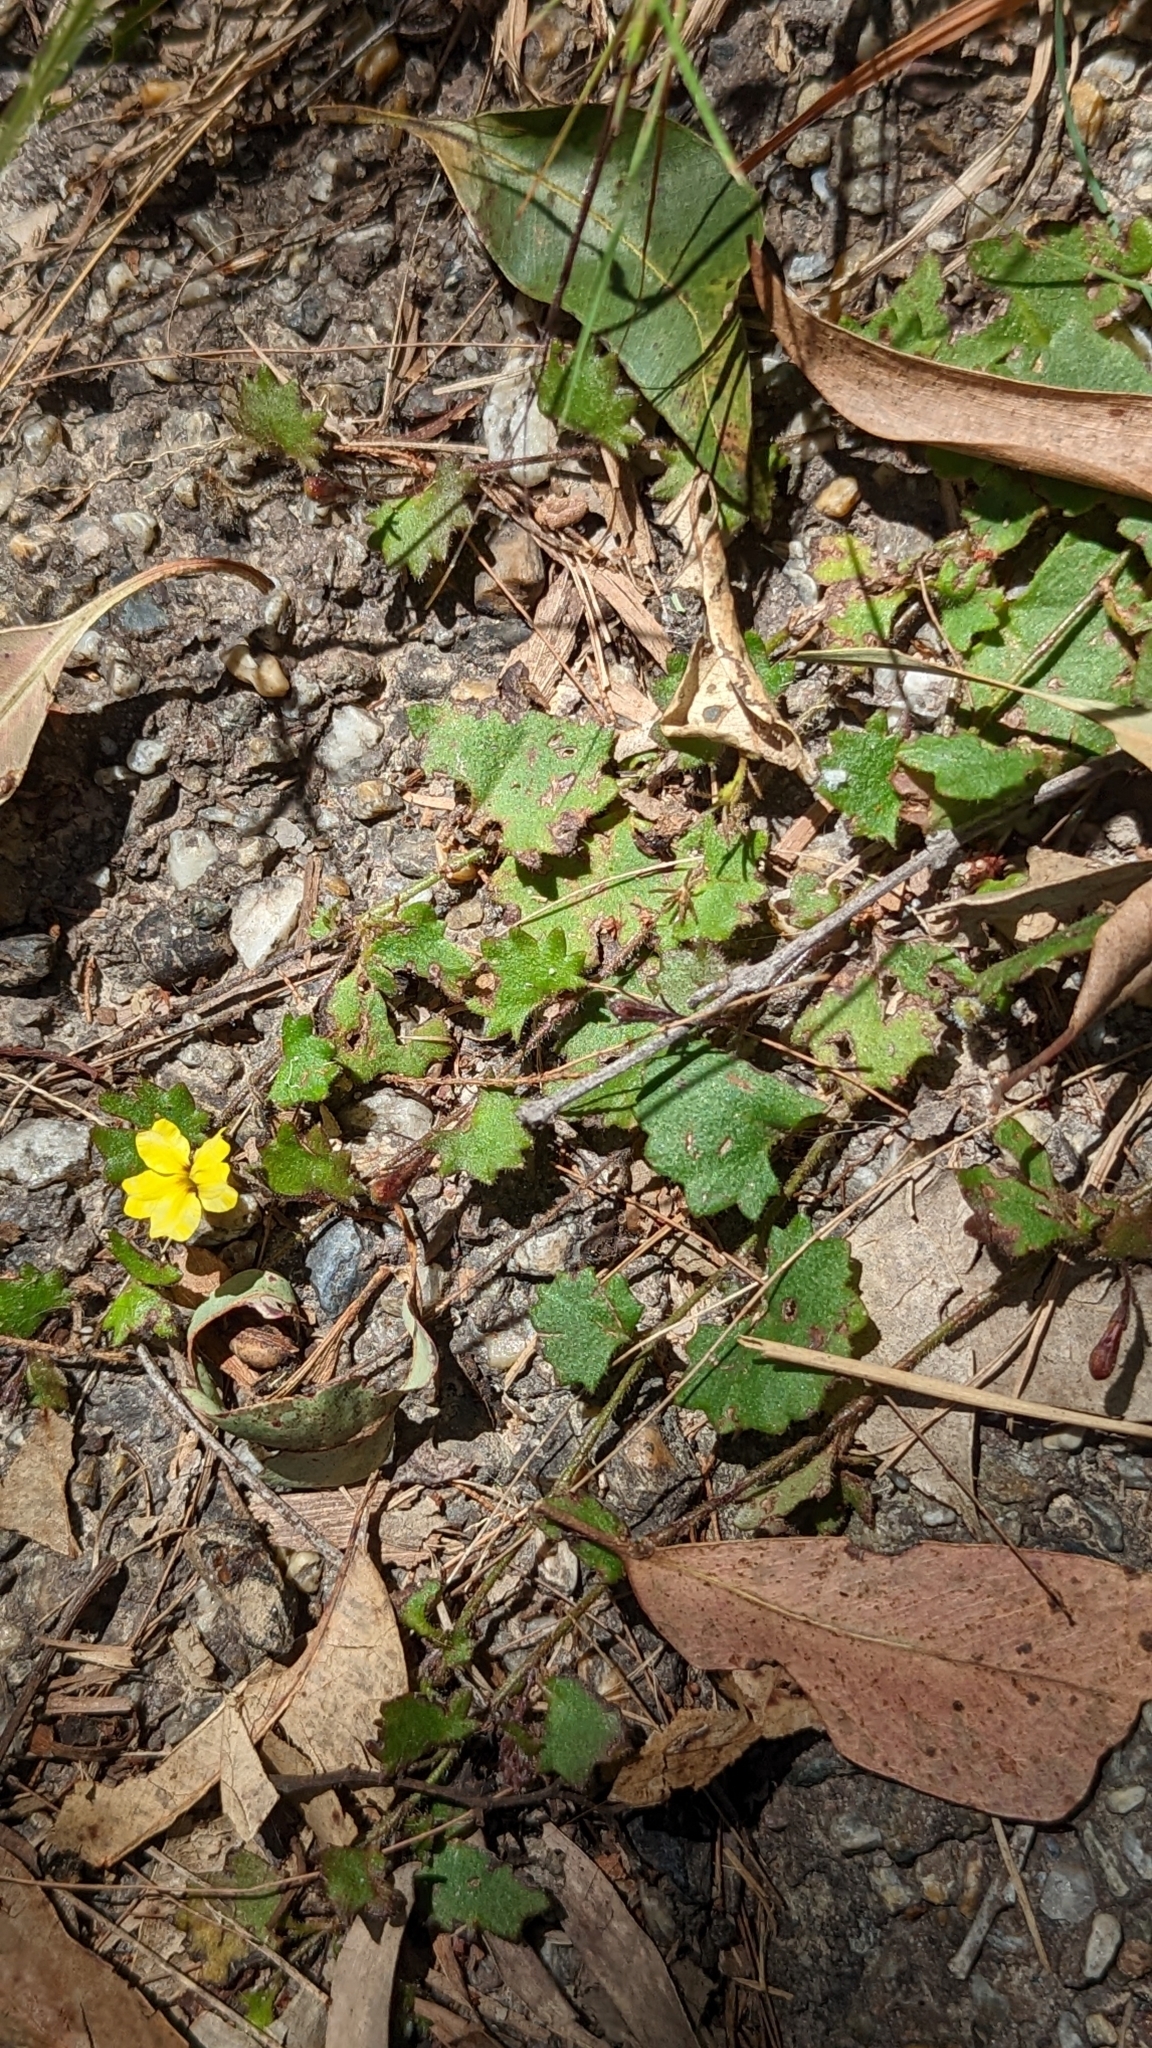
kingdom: Plantae
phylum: Tracheophyta
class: Magnoliopsida
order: Asterales
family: Goodeniaceae
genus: Goodenia
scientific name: Goodenia rotundifolia
